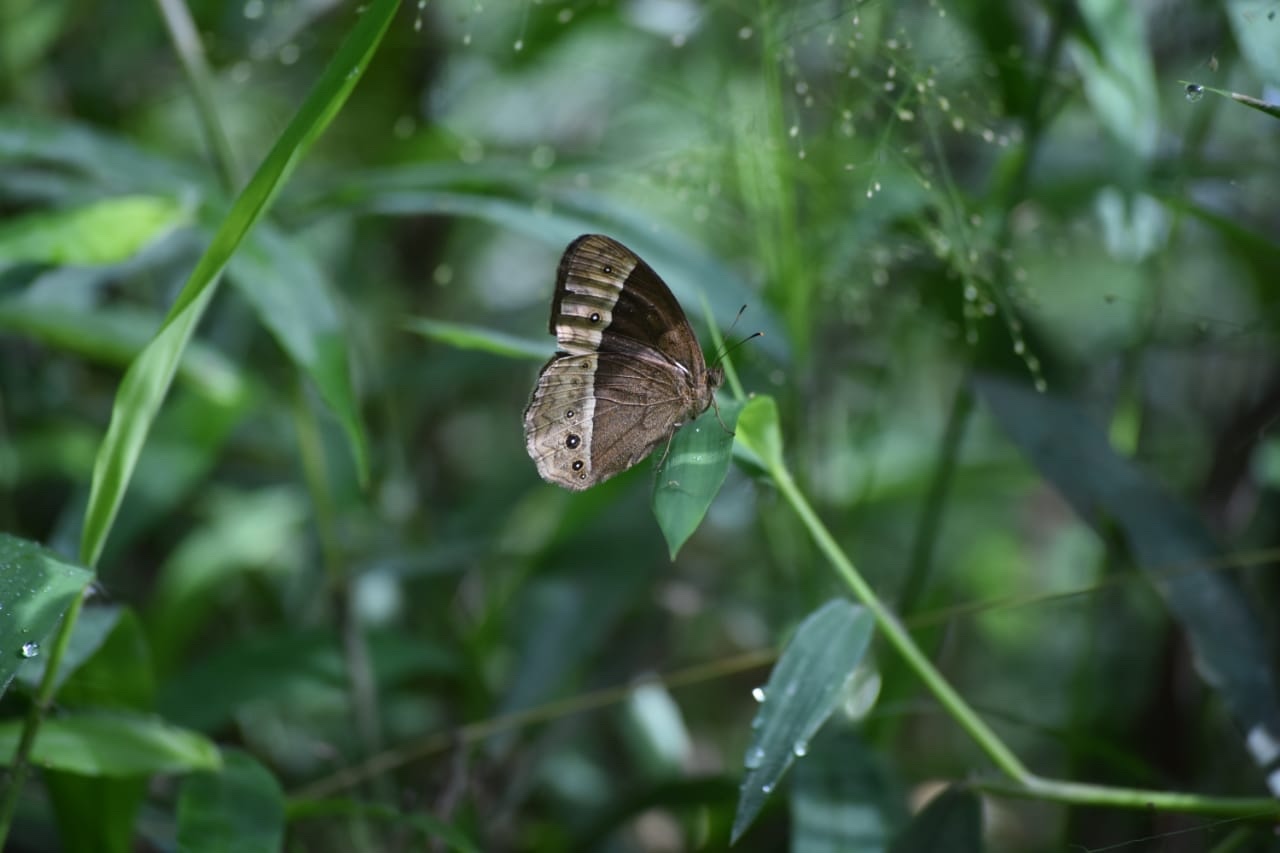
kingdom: Animalia
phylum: Arthropoda
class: Insecta
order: Lepidoptera
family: Nymphalidae
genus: Mycalesis
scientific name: Mycalesis sudra
